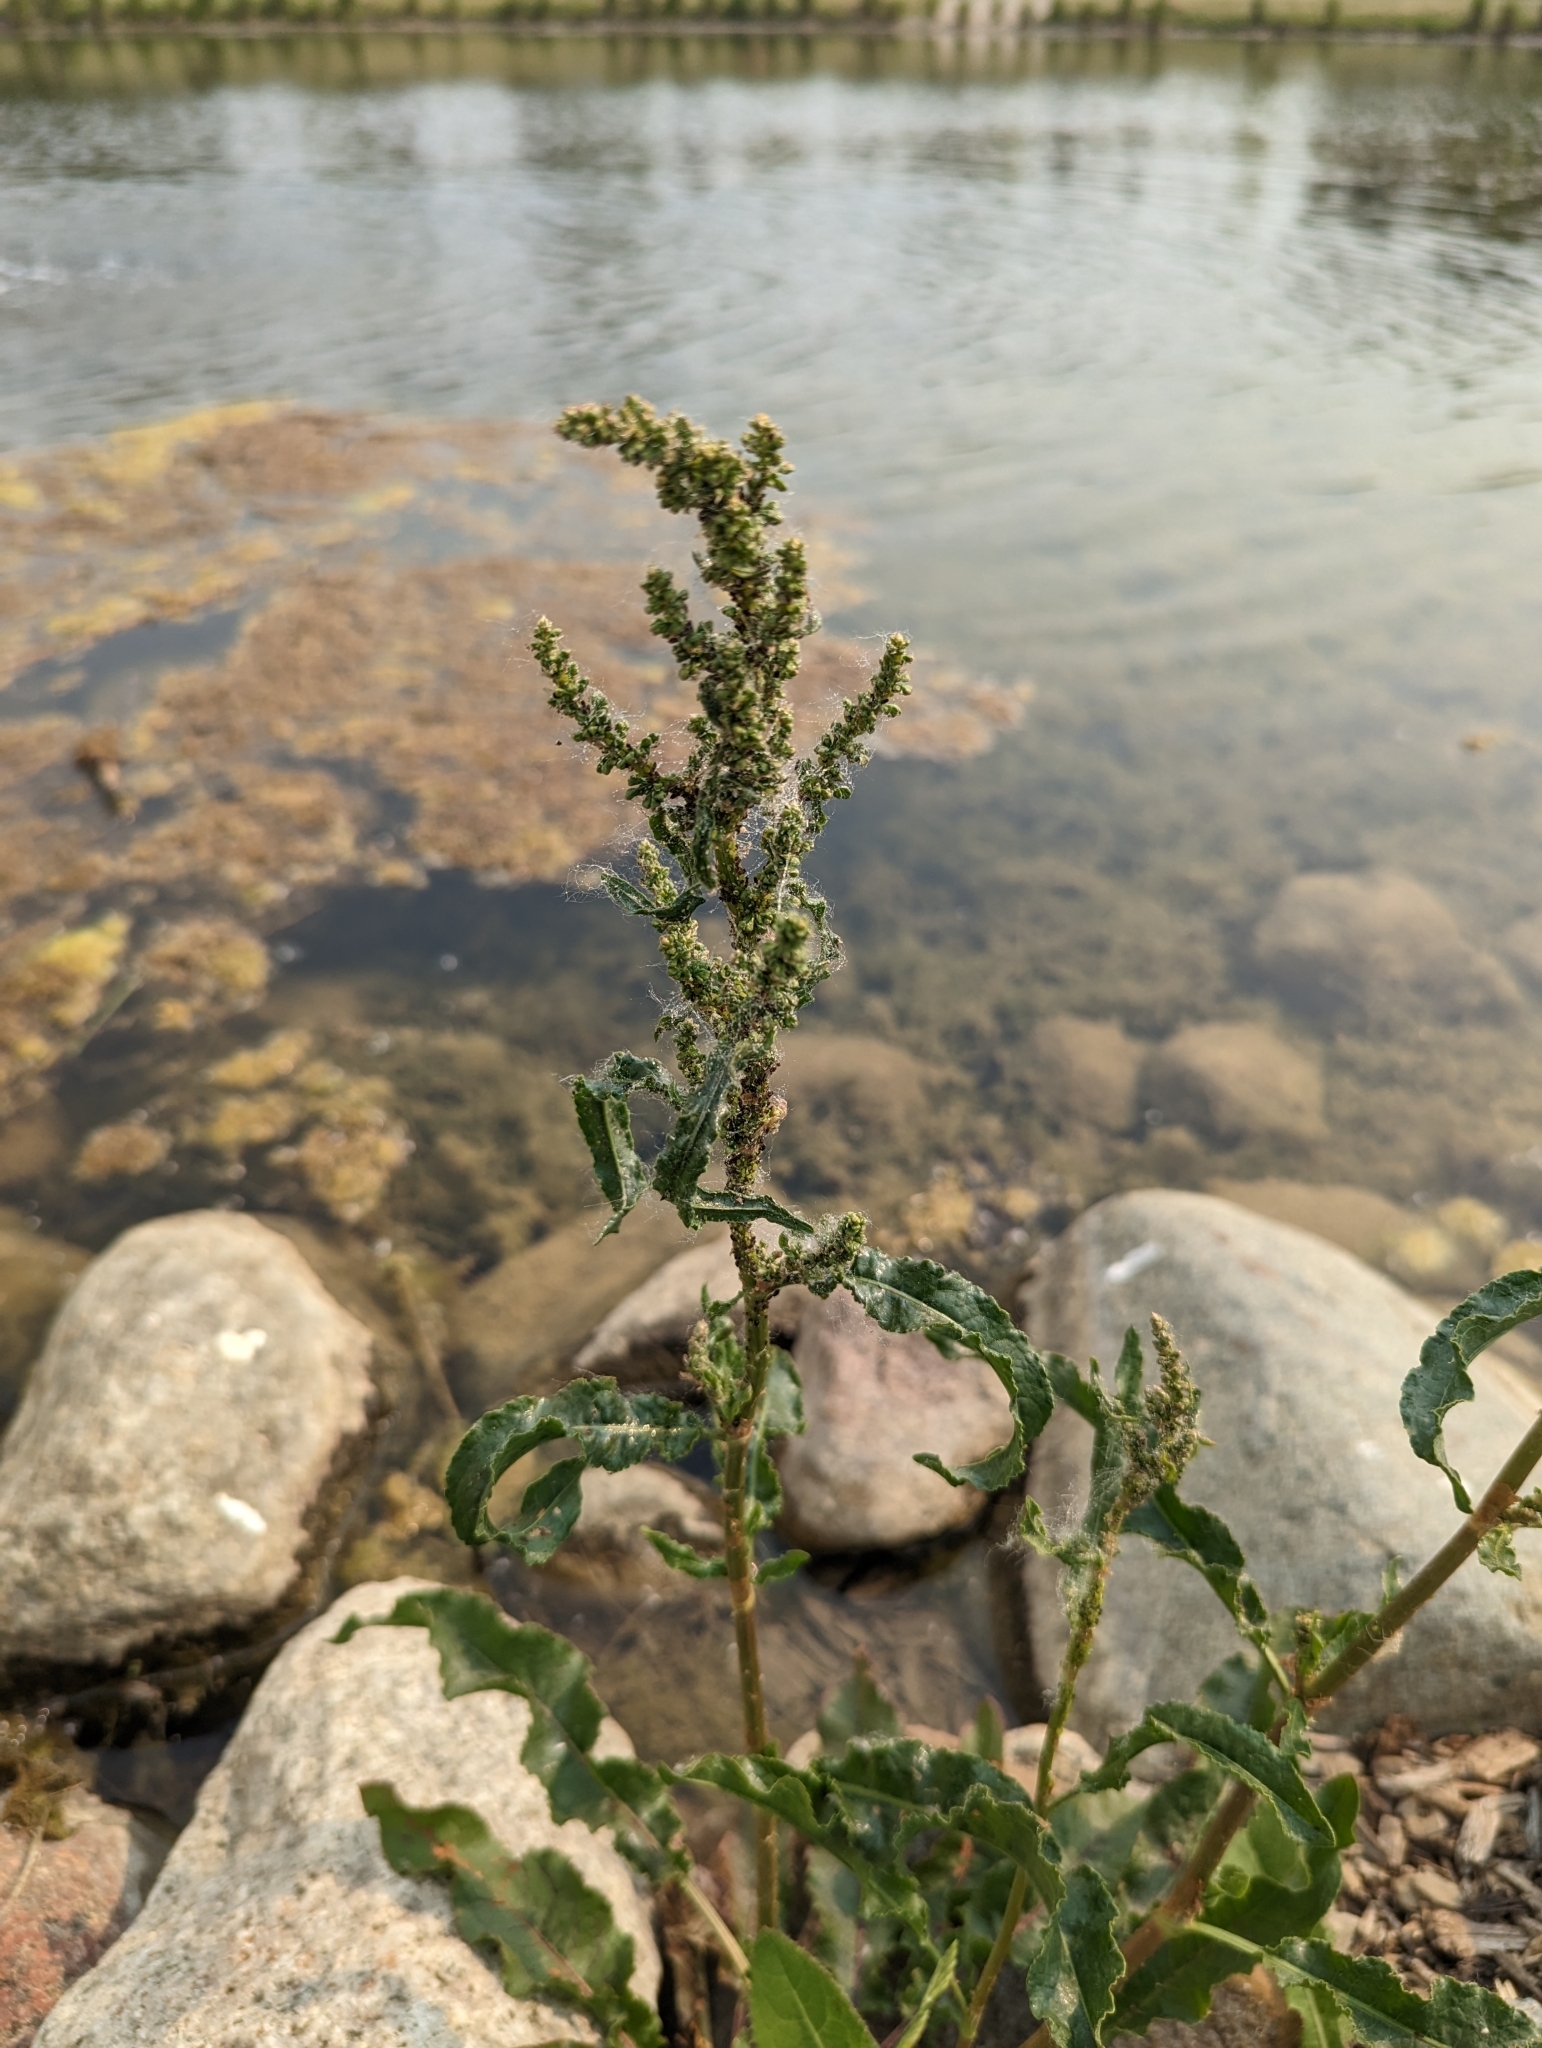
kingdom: Plantae
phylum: Tracheophyta
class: Magnoliopsida
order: Caryophyllales
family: Polygonaceae
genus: Rumex
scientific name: Rumex crispus
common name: Curled dock
